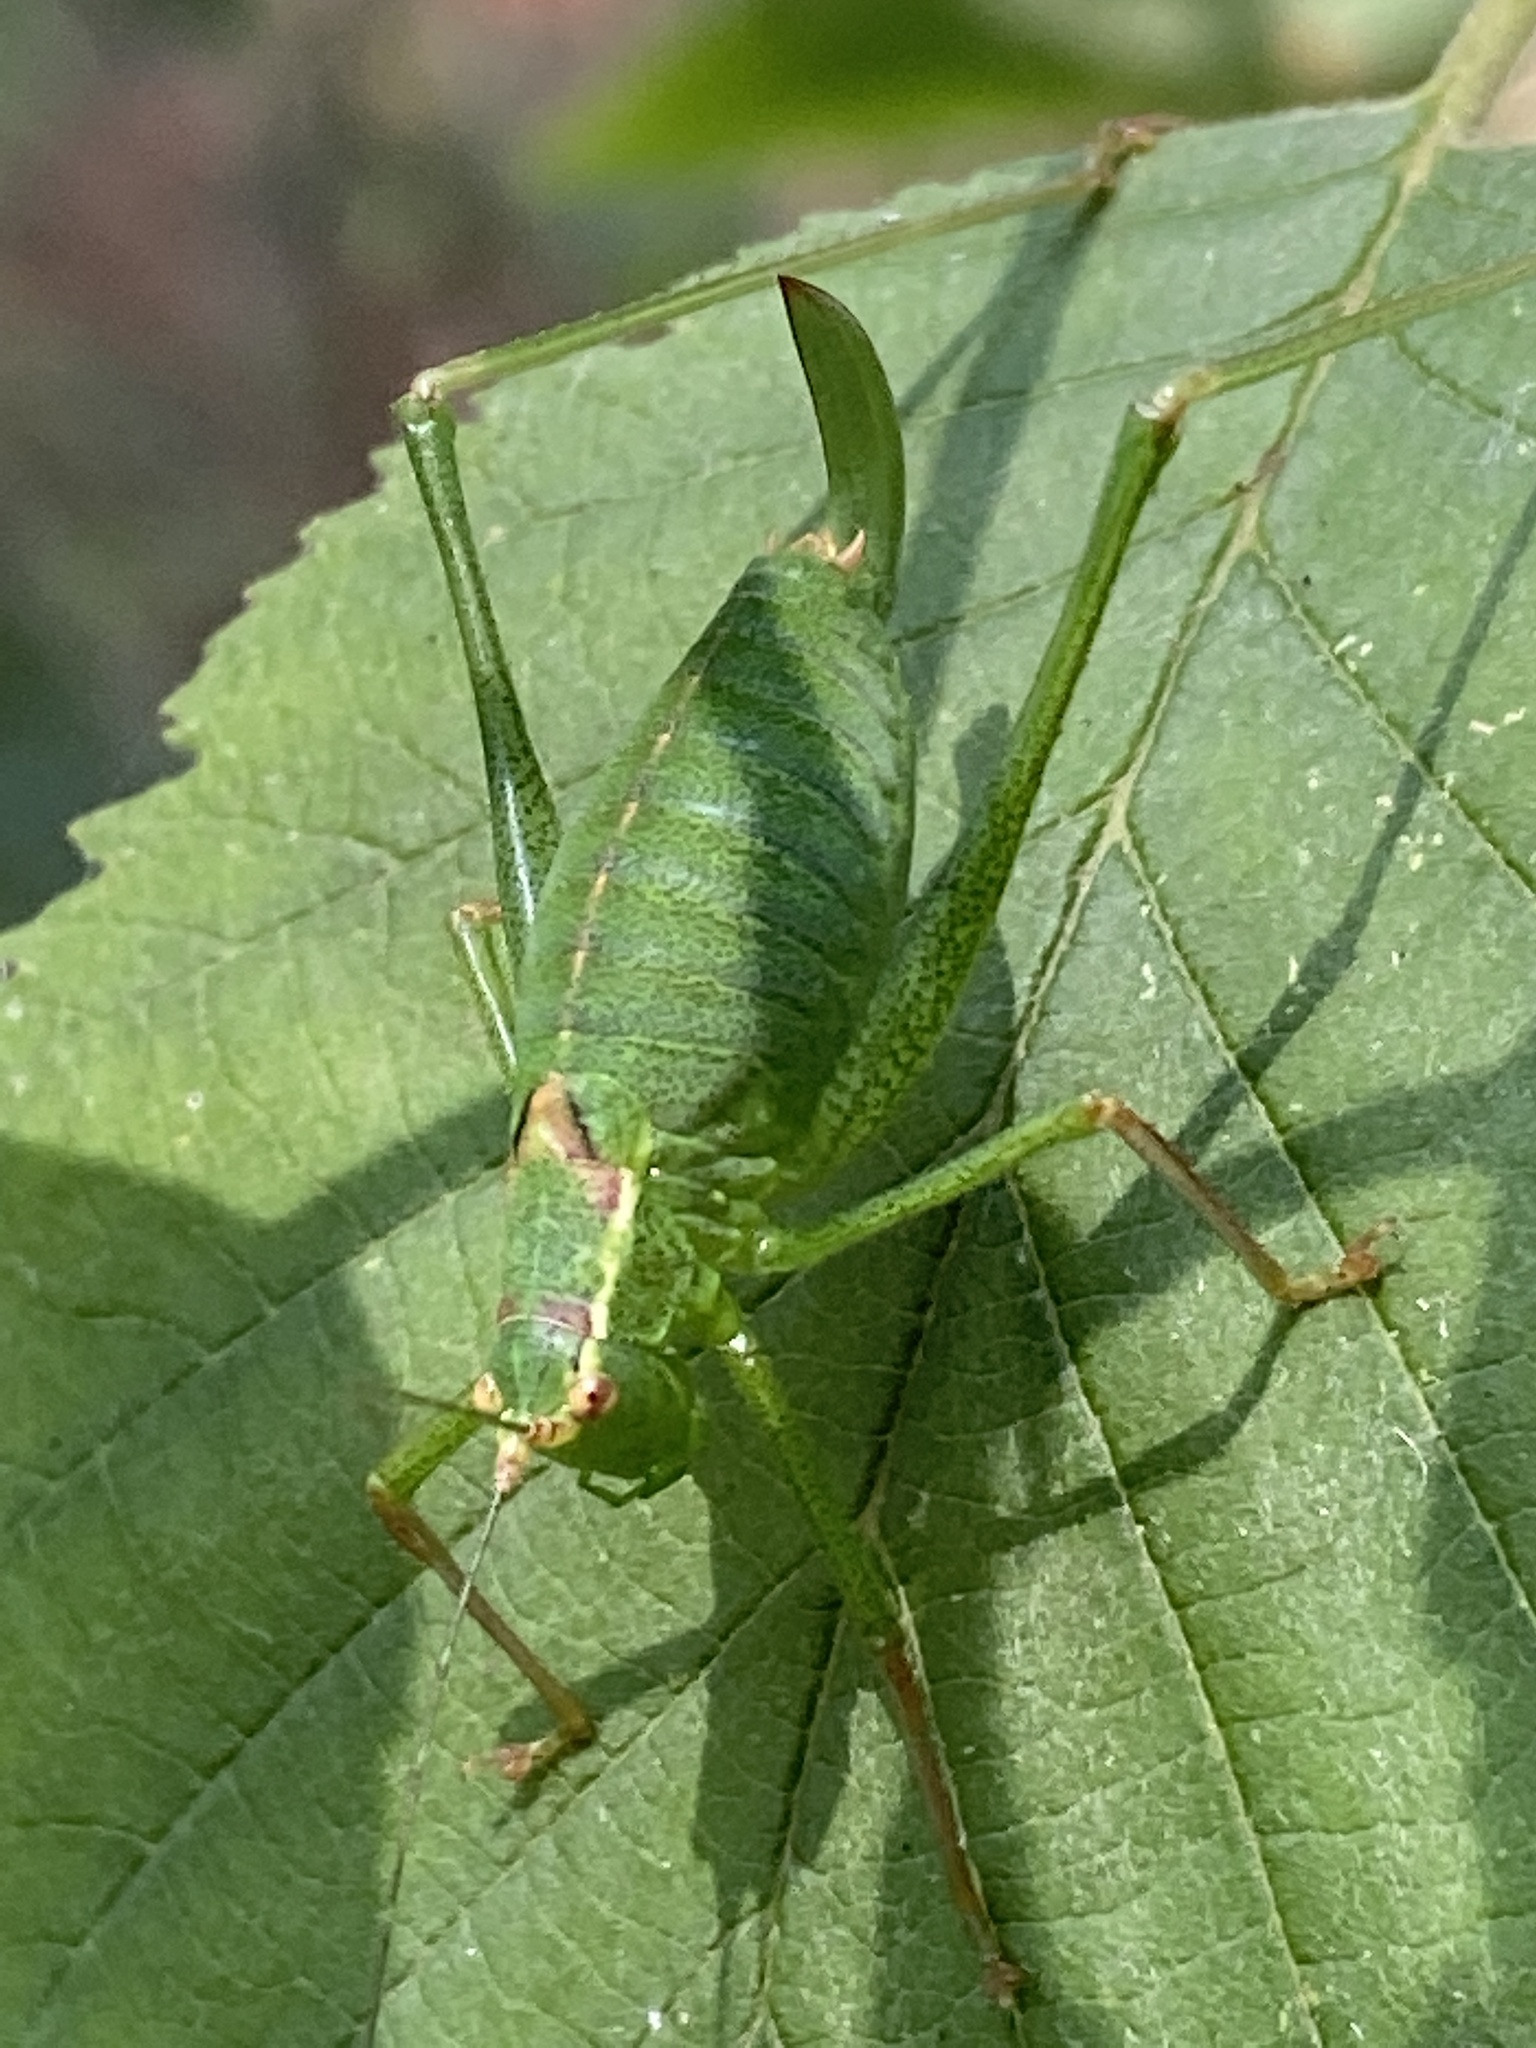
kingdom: Animalia
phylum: Arthropoda
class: Insecta
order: Orthoptera
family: Tettigoniidae
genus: Leptophyes
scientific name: Leptophyes punctatissima
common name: Speckled bush-cricket
